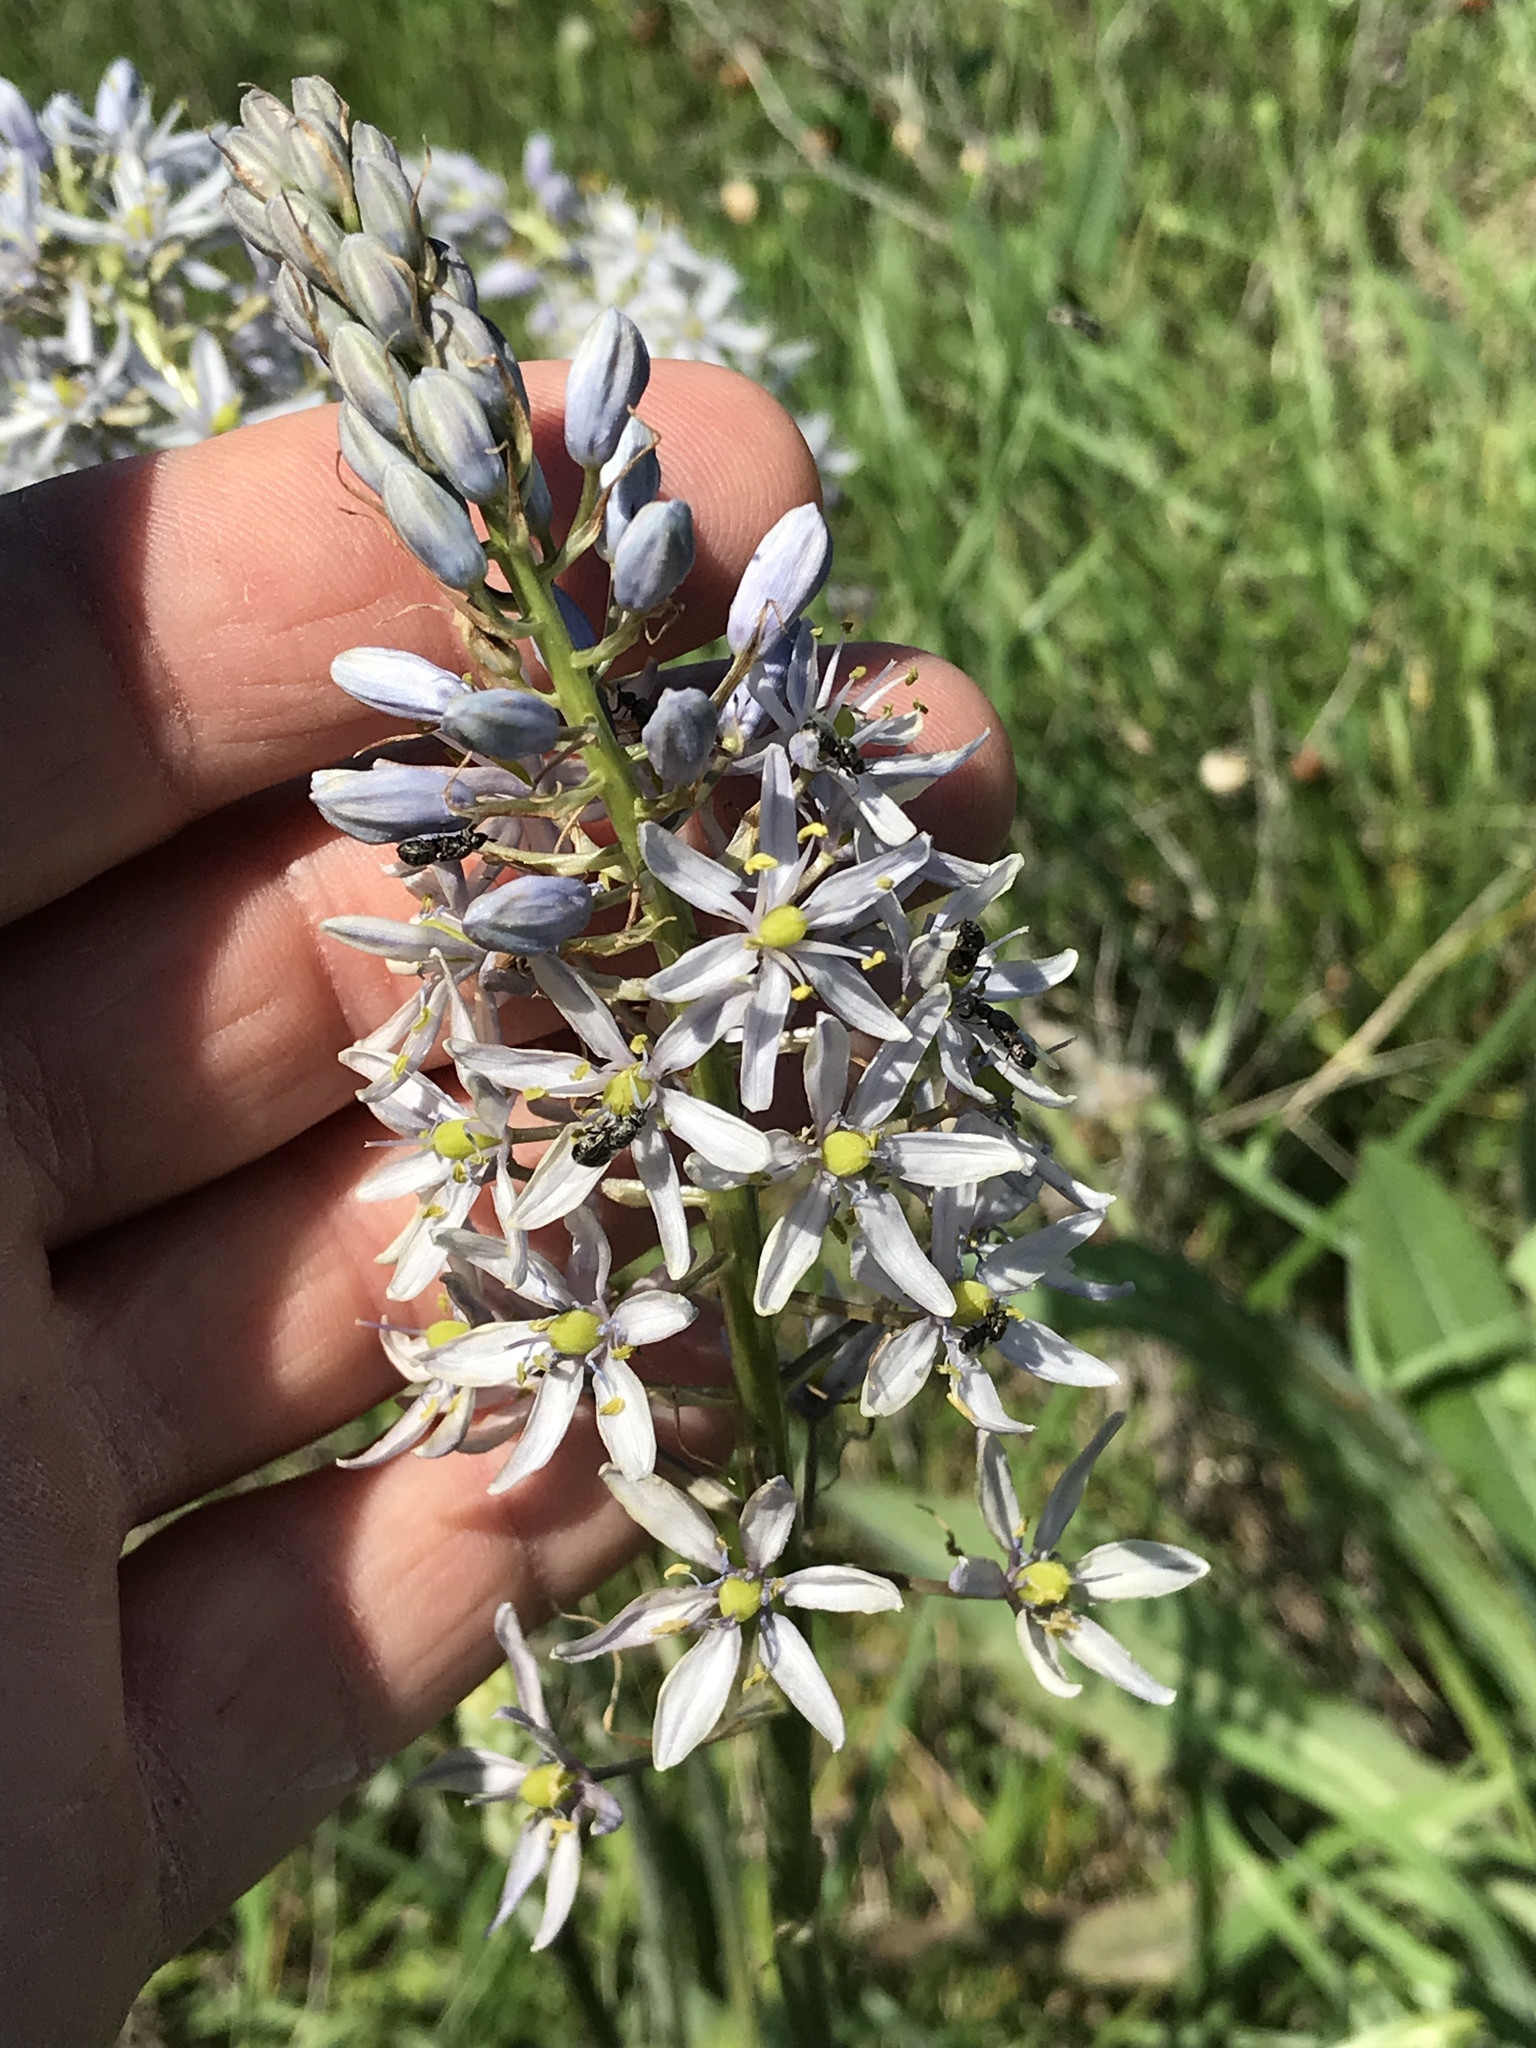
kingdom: Plantae
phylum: Tracheophyta
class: Liliopsida
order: Asparagales
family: Asparagaceae
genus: Camassia
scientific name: Camassia scilloides
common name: Wild hyacinth
